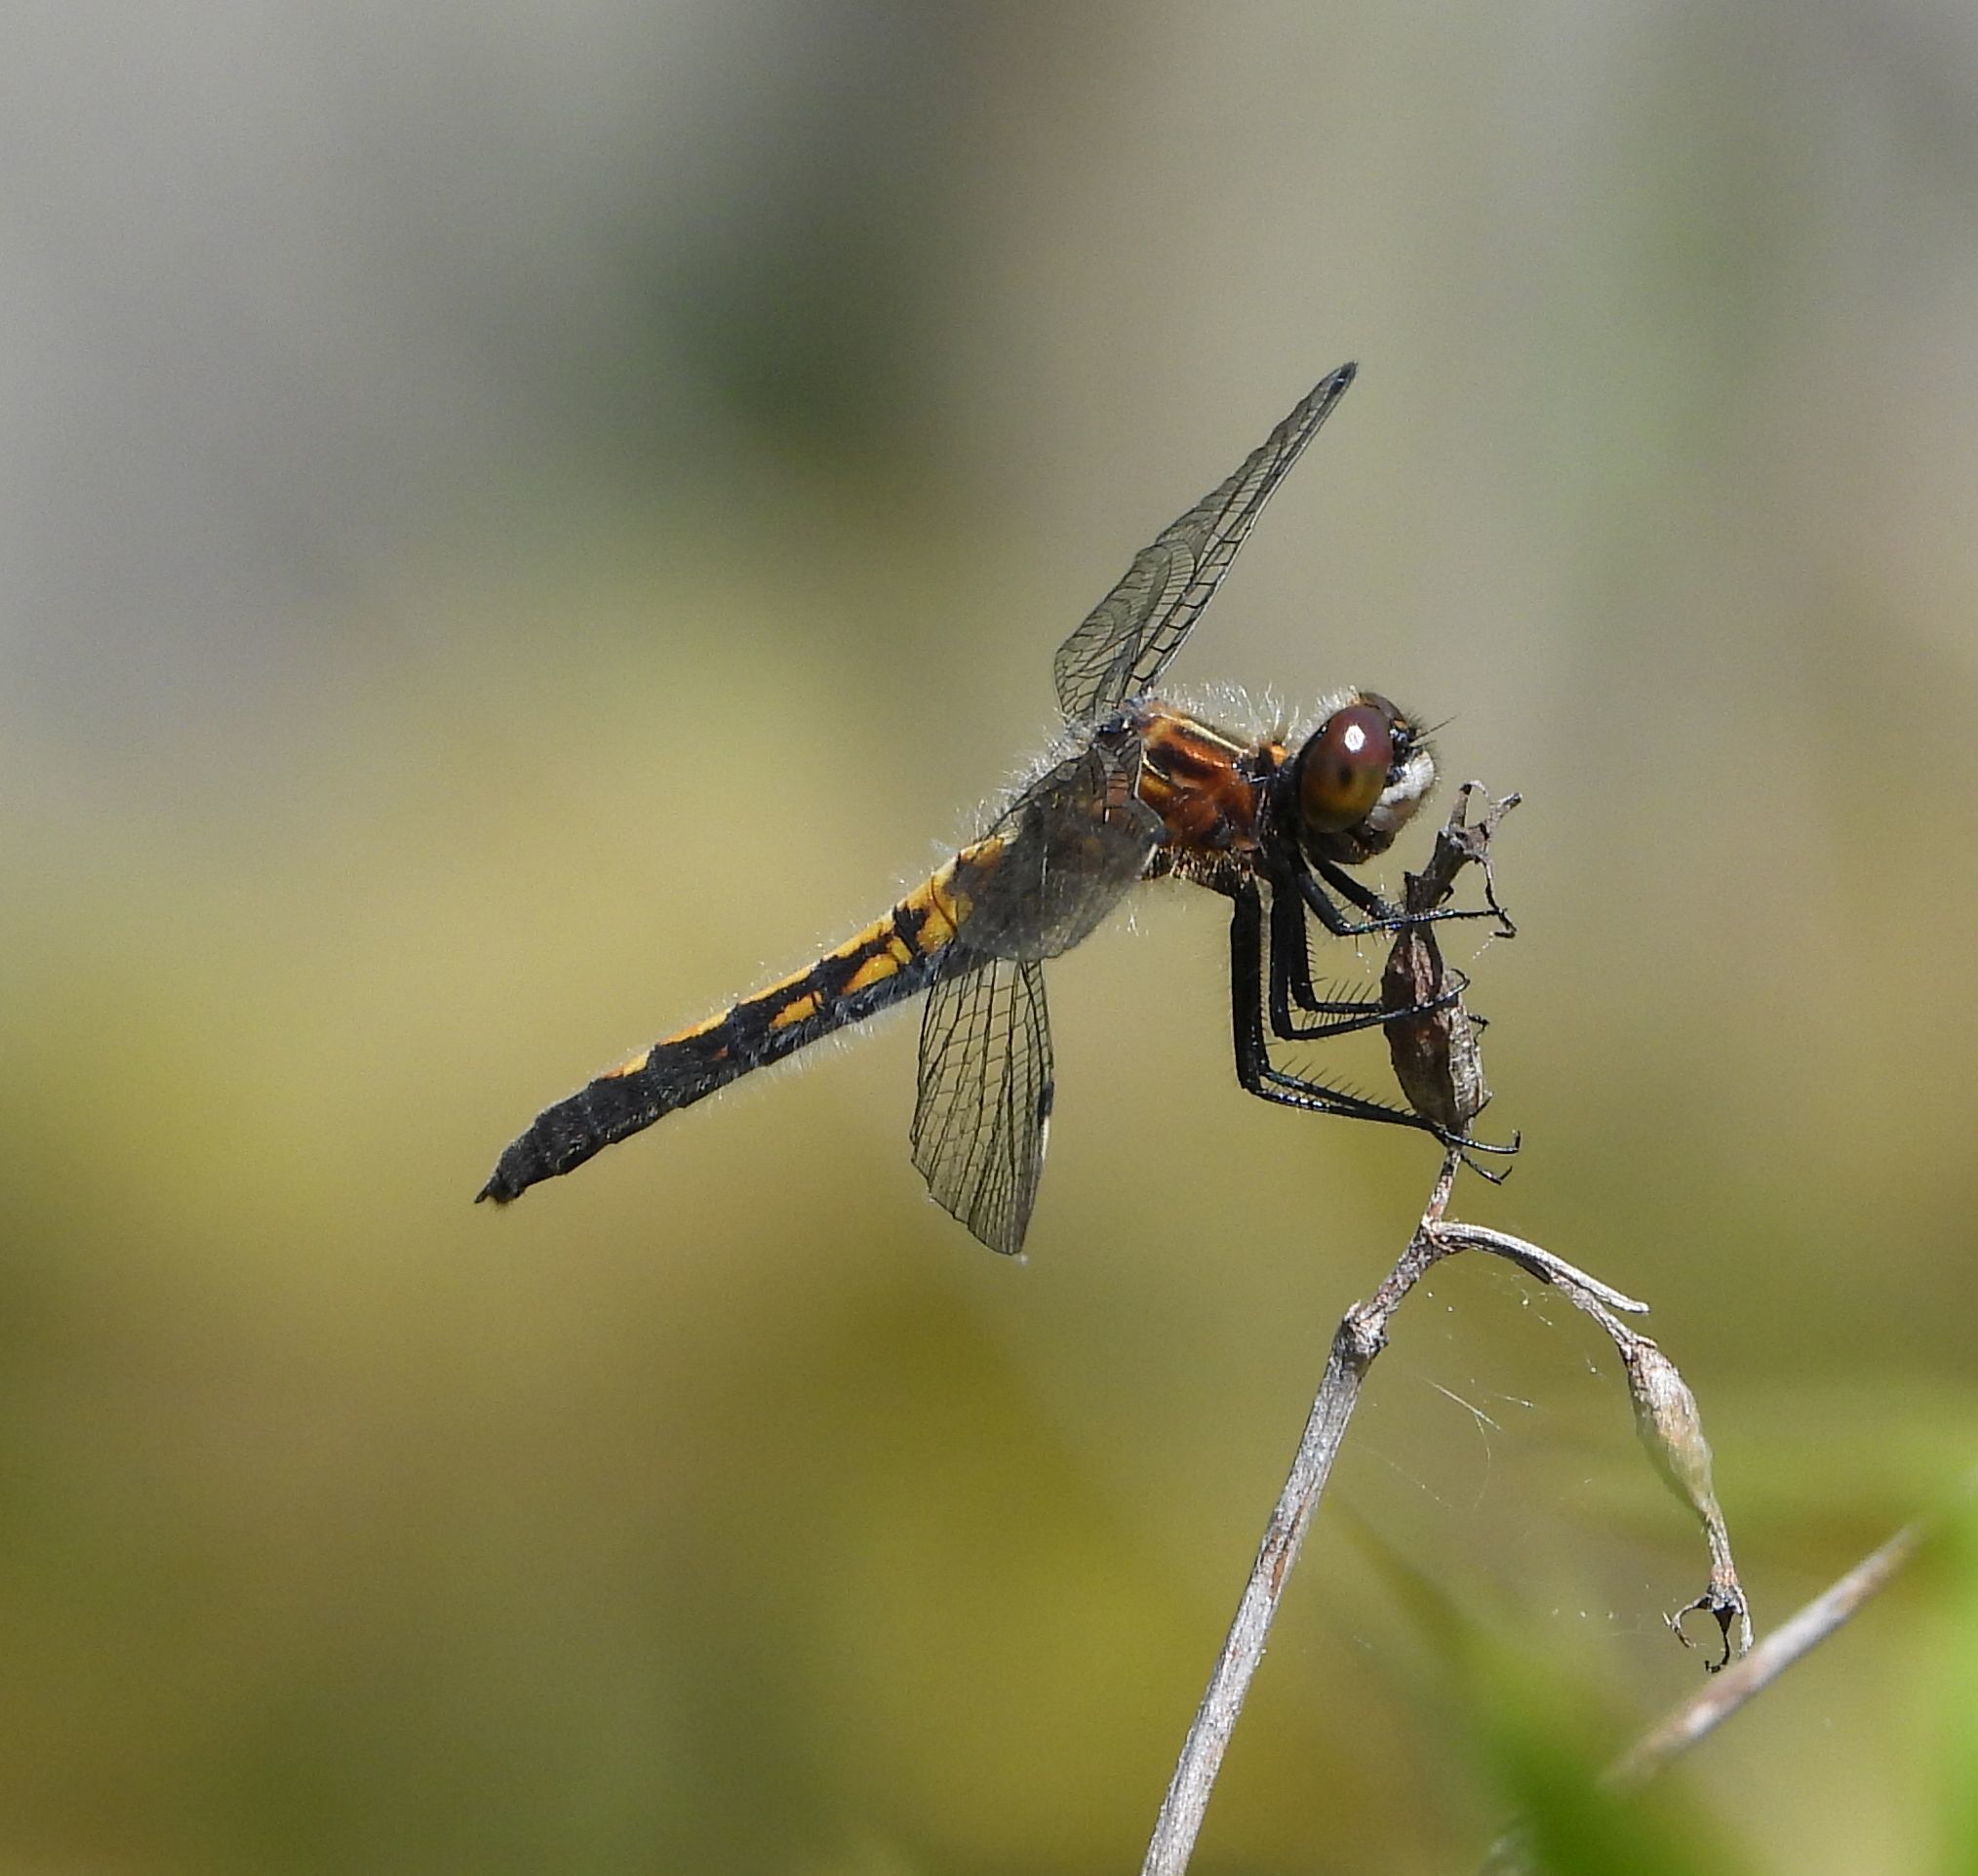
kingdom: Animalia
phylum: Arthropoda
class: Insecta
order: Odonata
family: Libellulidae
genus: Leucorrhinia
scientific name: Leucorrhinia intacta
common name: Dot-tailed whiteface
